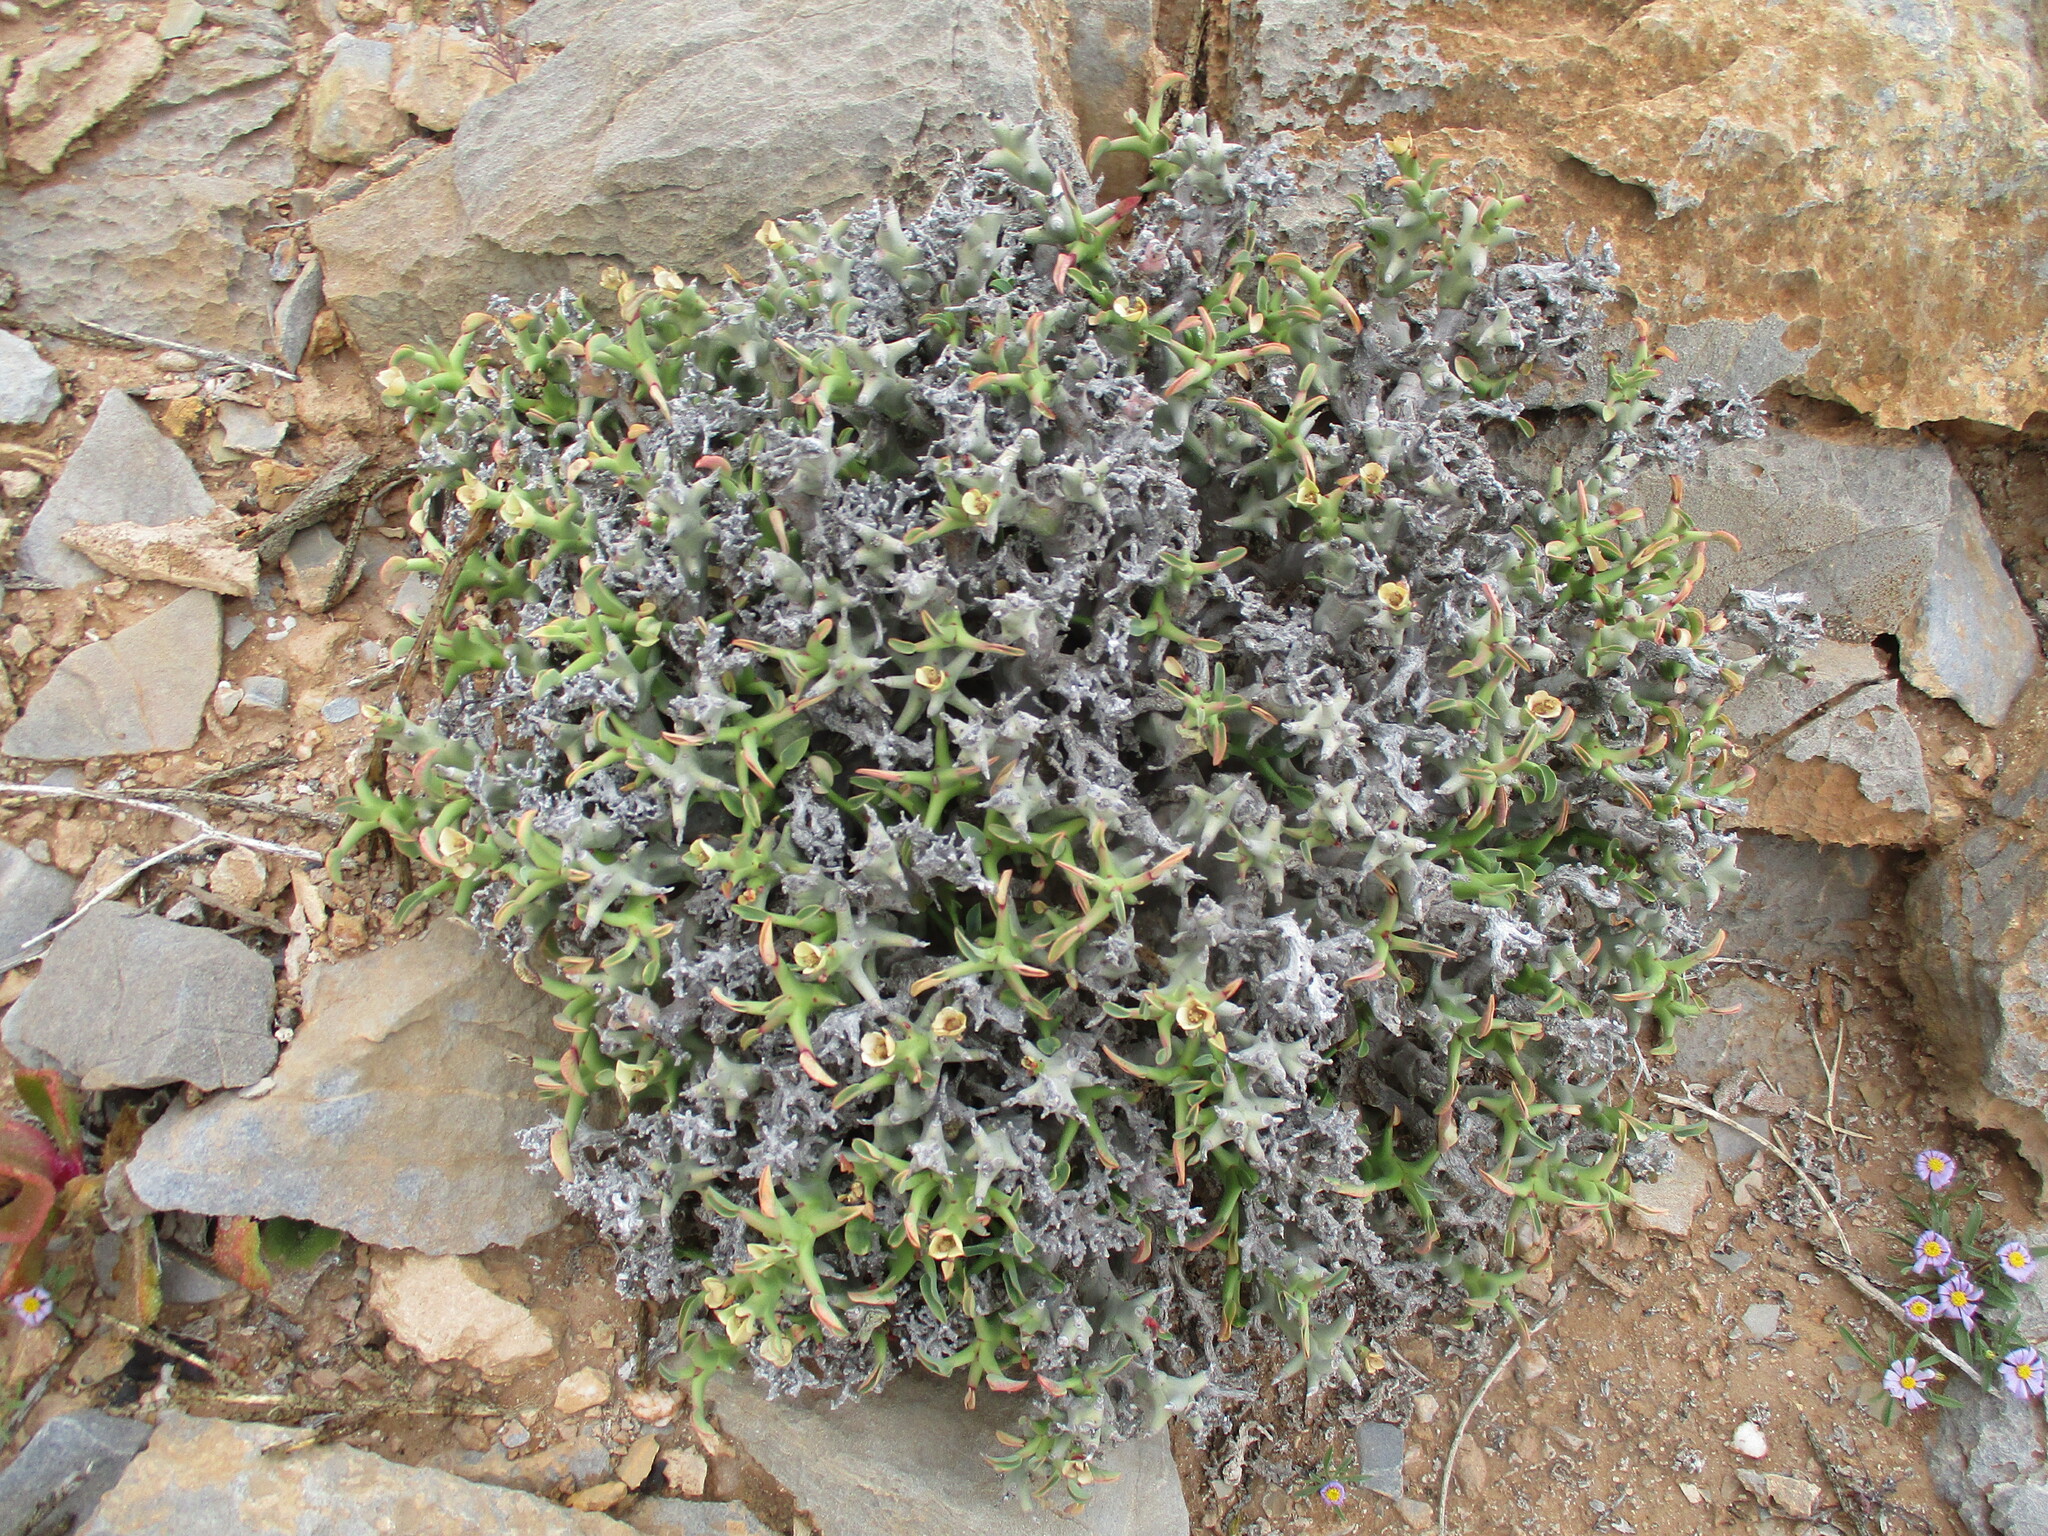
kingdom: Plantae
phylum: Tracheophyta
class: Magnoliopsida
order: Malpighiales
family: Euphorbiaceae
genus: Euphorbia
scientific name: Euphorbia hamata
